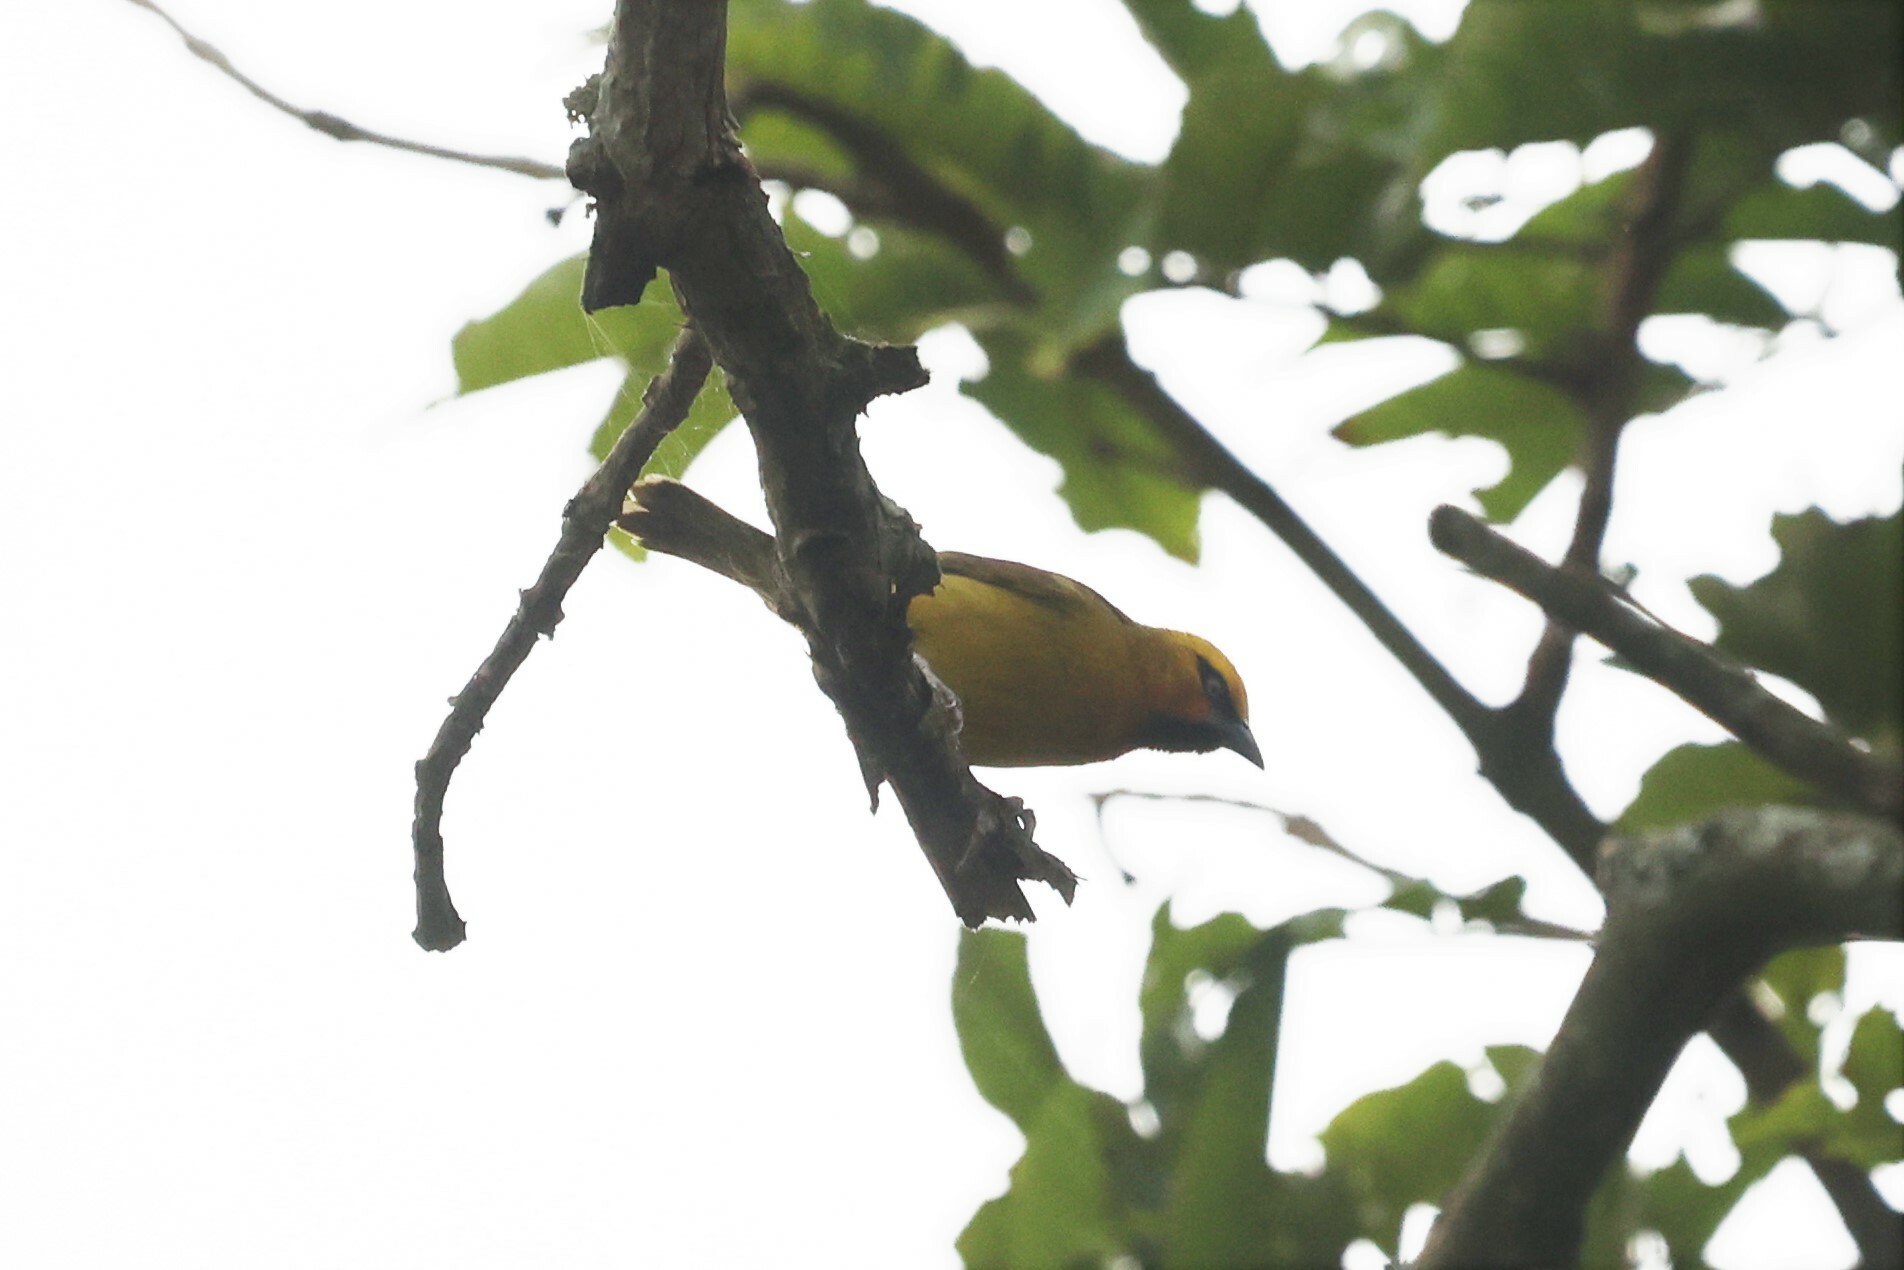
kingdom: Animalia
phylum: Chordata
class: Aves
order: Passeriformes
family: Ploceidae
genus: Ploceus
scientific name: Ploceus ocularis
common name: Spectacled weaver
